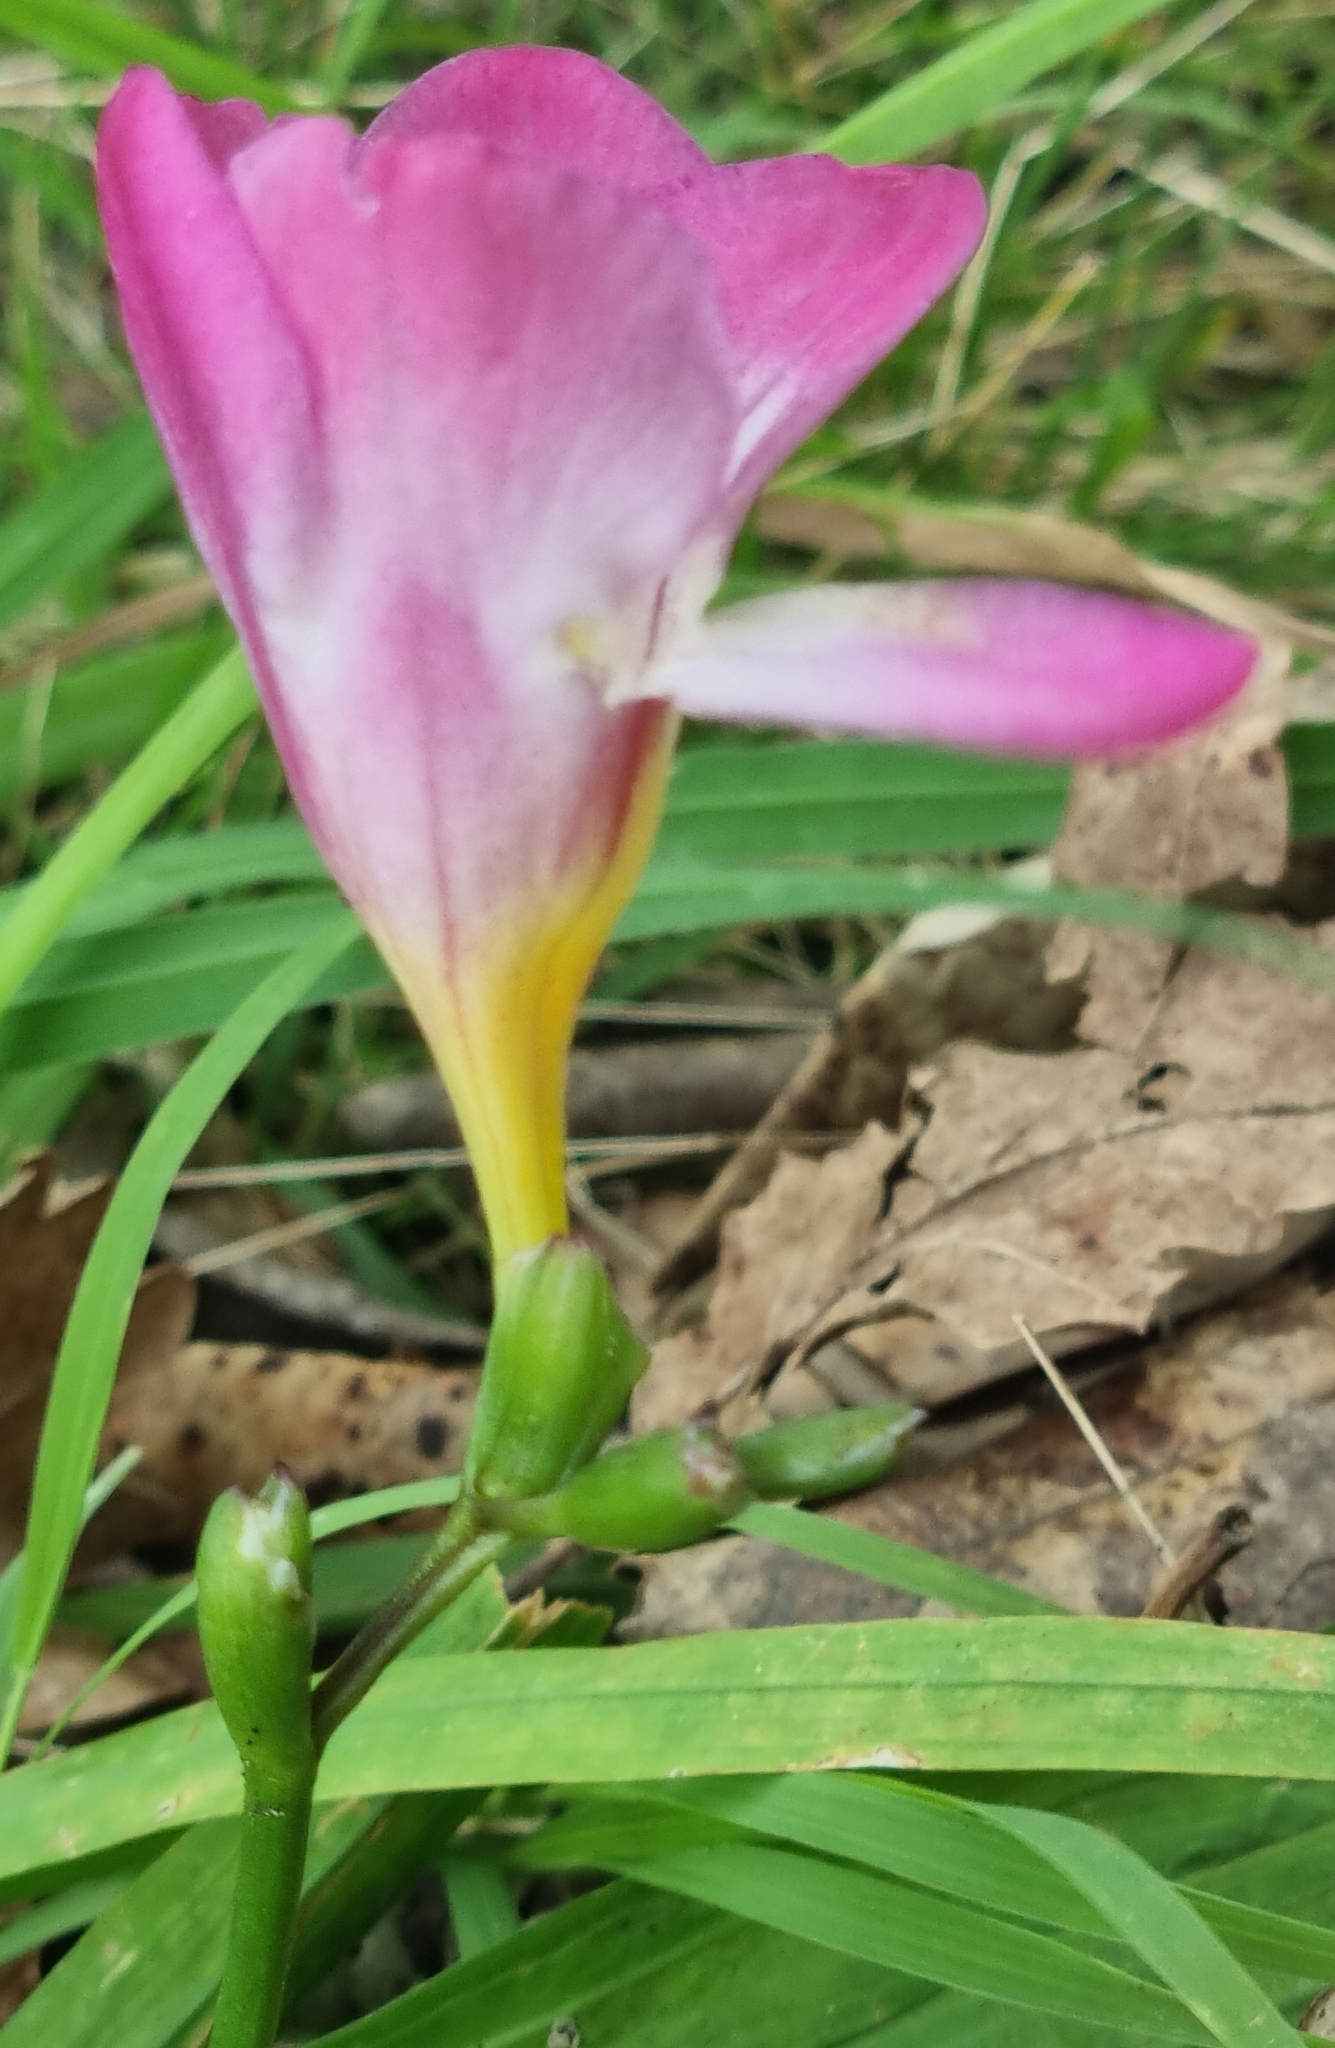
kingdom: Plantae
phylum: Tracheophyta
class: Liliopsida
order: Asparagales
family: Iridaceae
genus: Freesia
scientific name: Freesia kewensis bis
